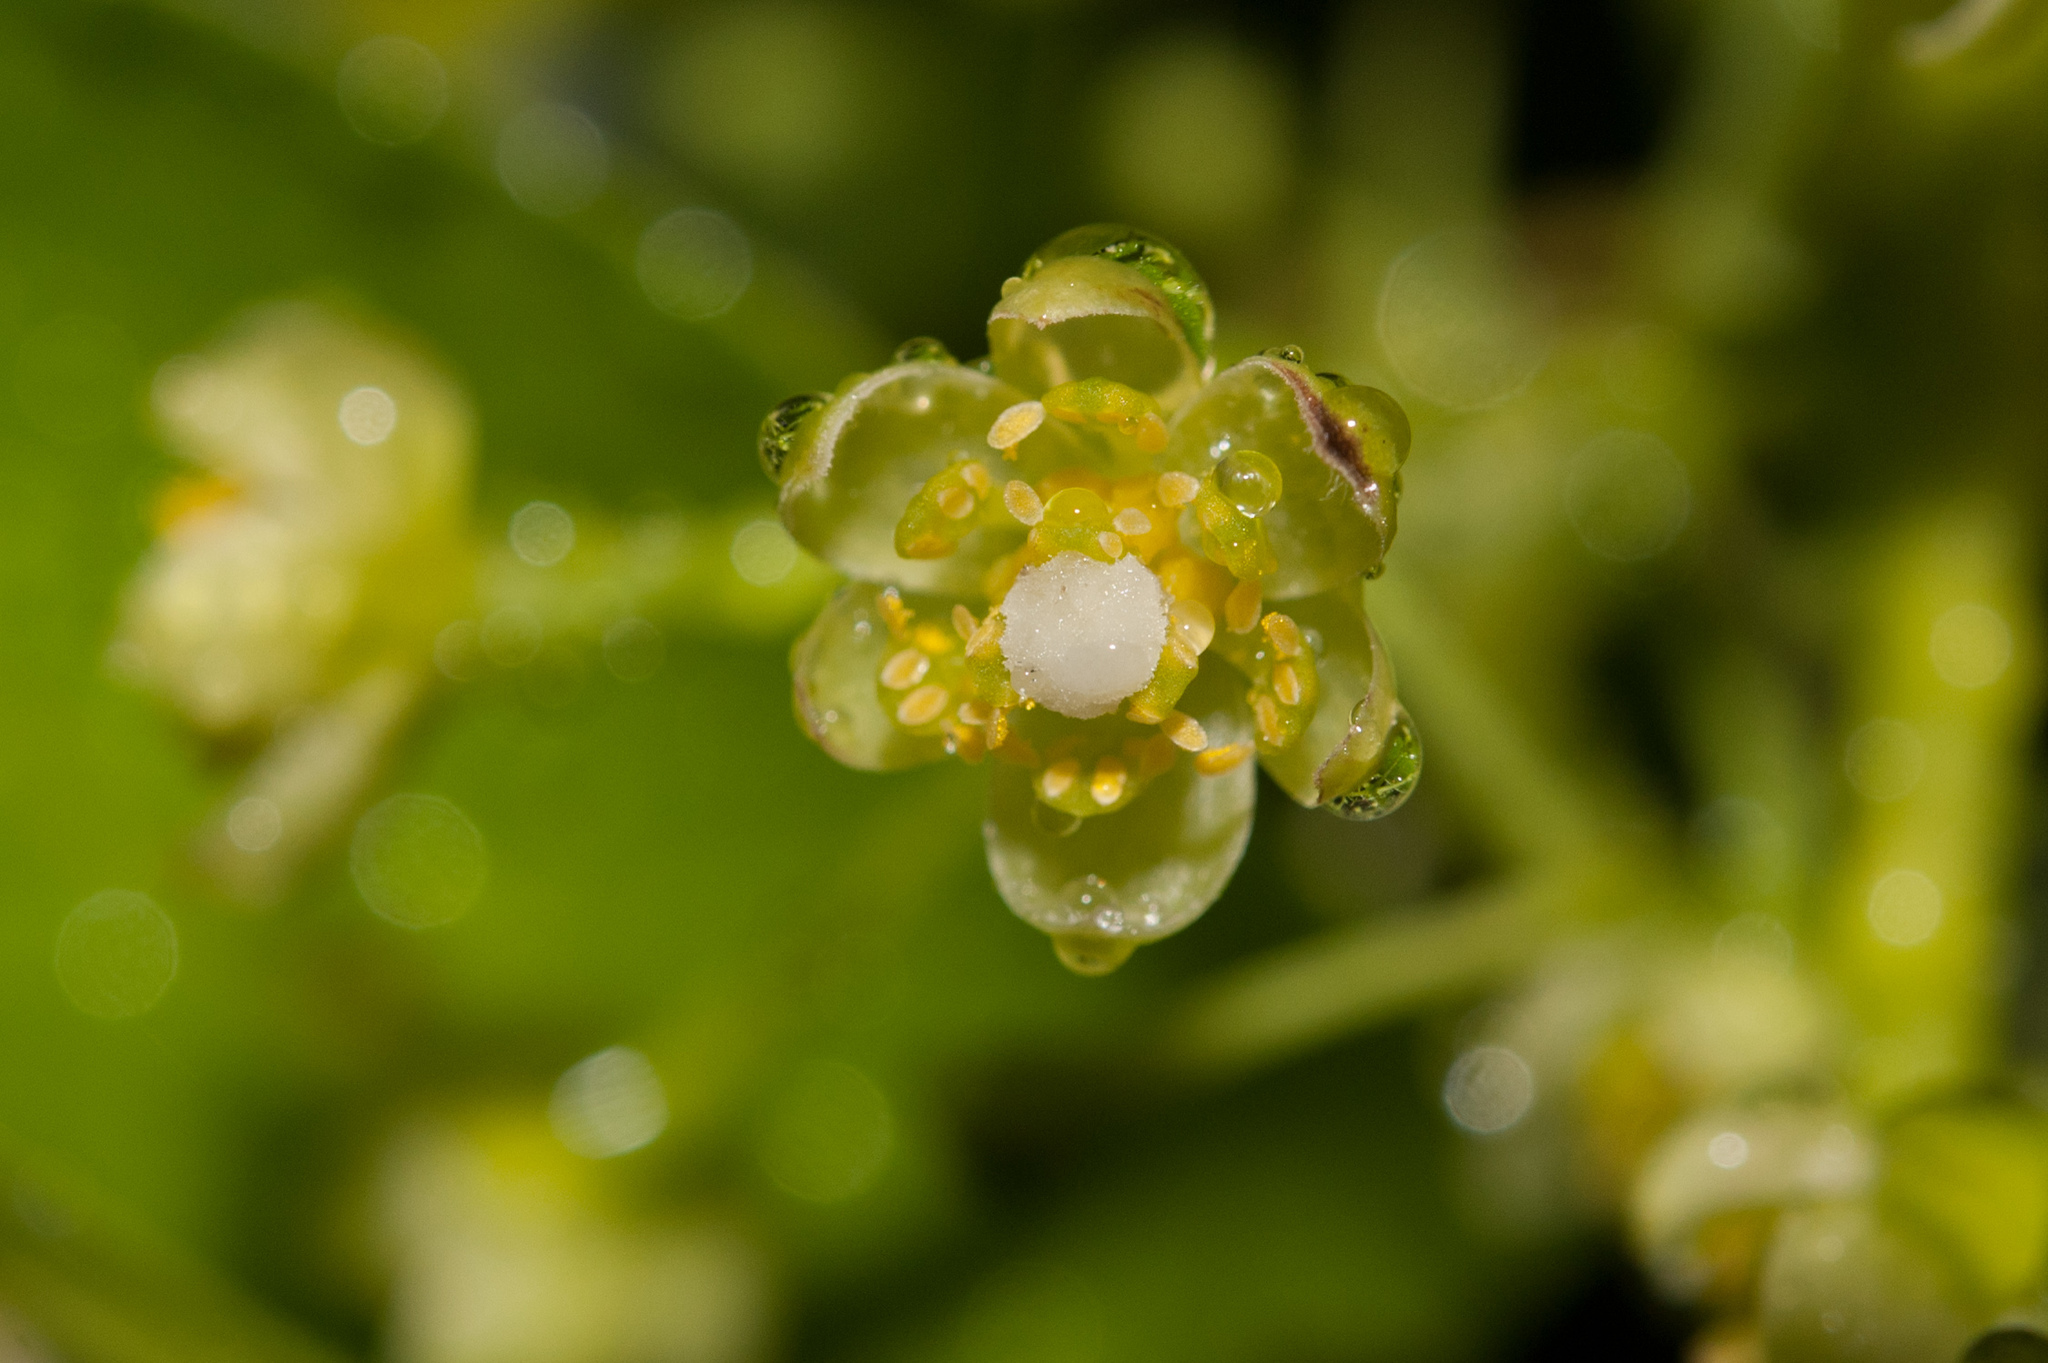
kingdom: Plantae
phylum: Tracheophyta
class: Magnoliopsida
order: Laurales
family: Lauraceae
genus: Cinnamomum
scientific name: Cinnamomum chekiangense
